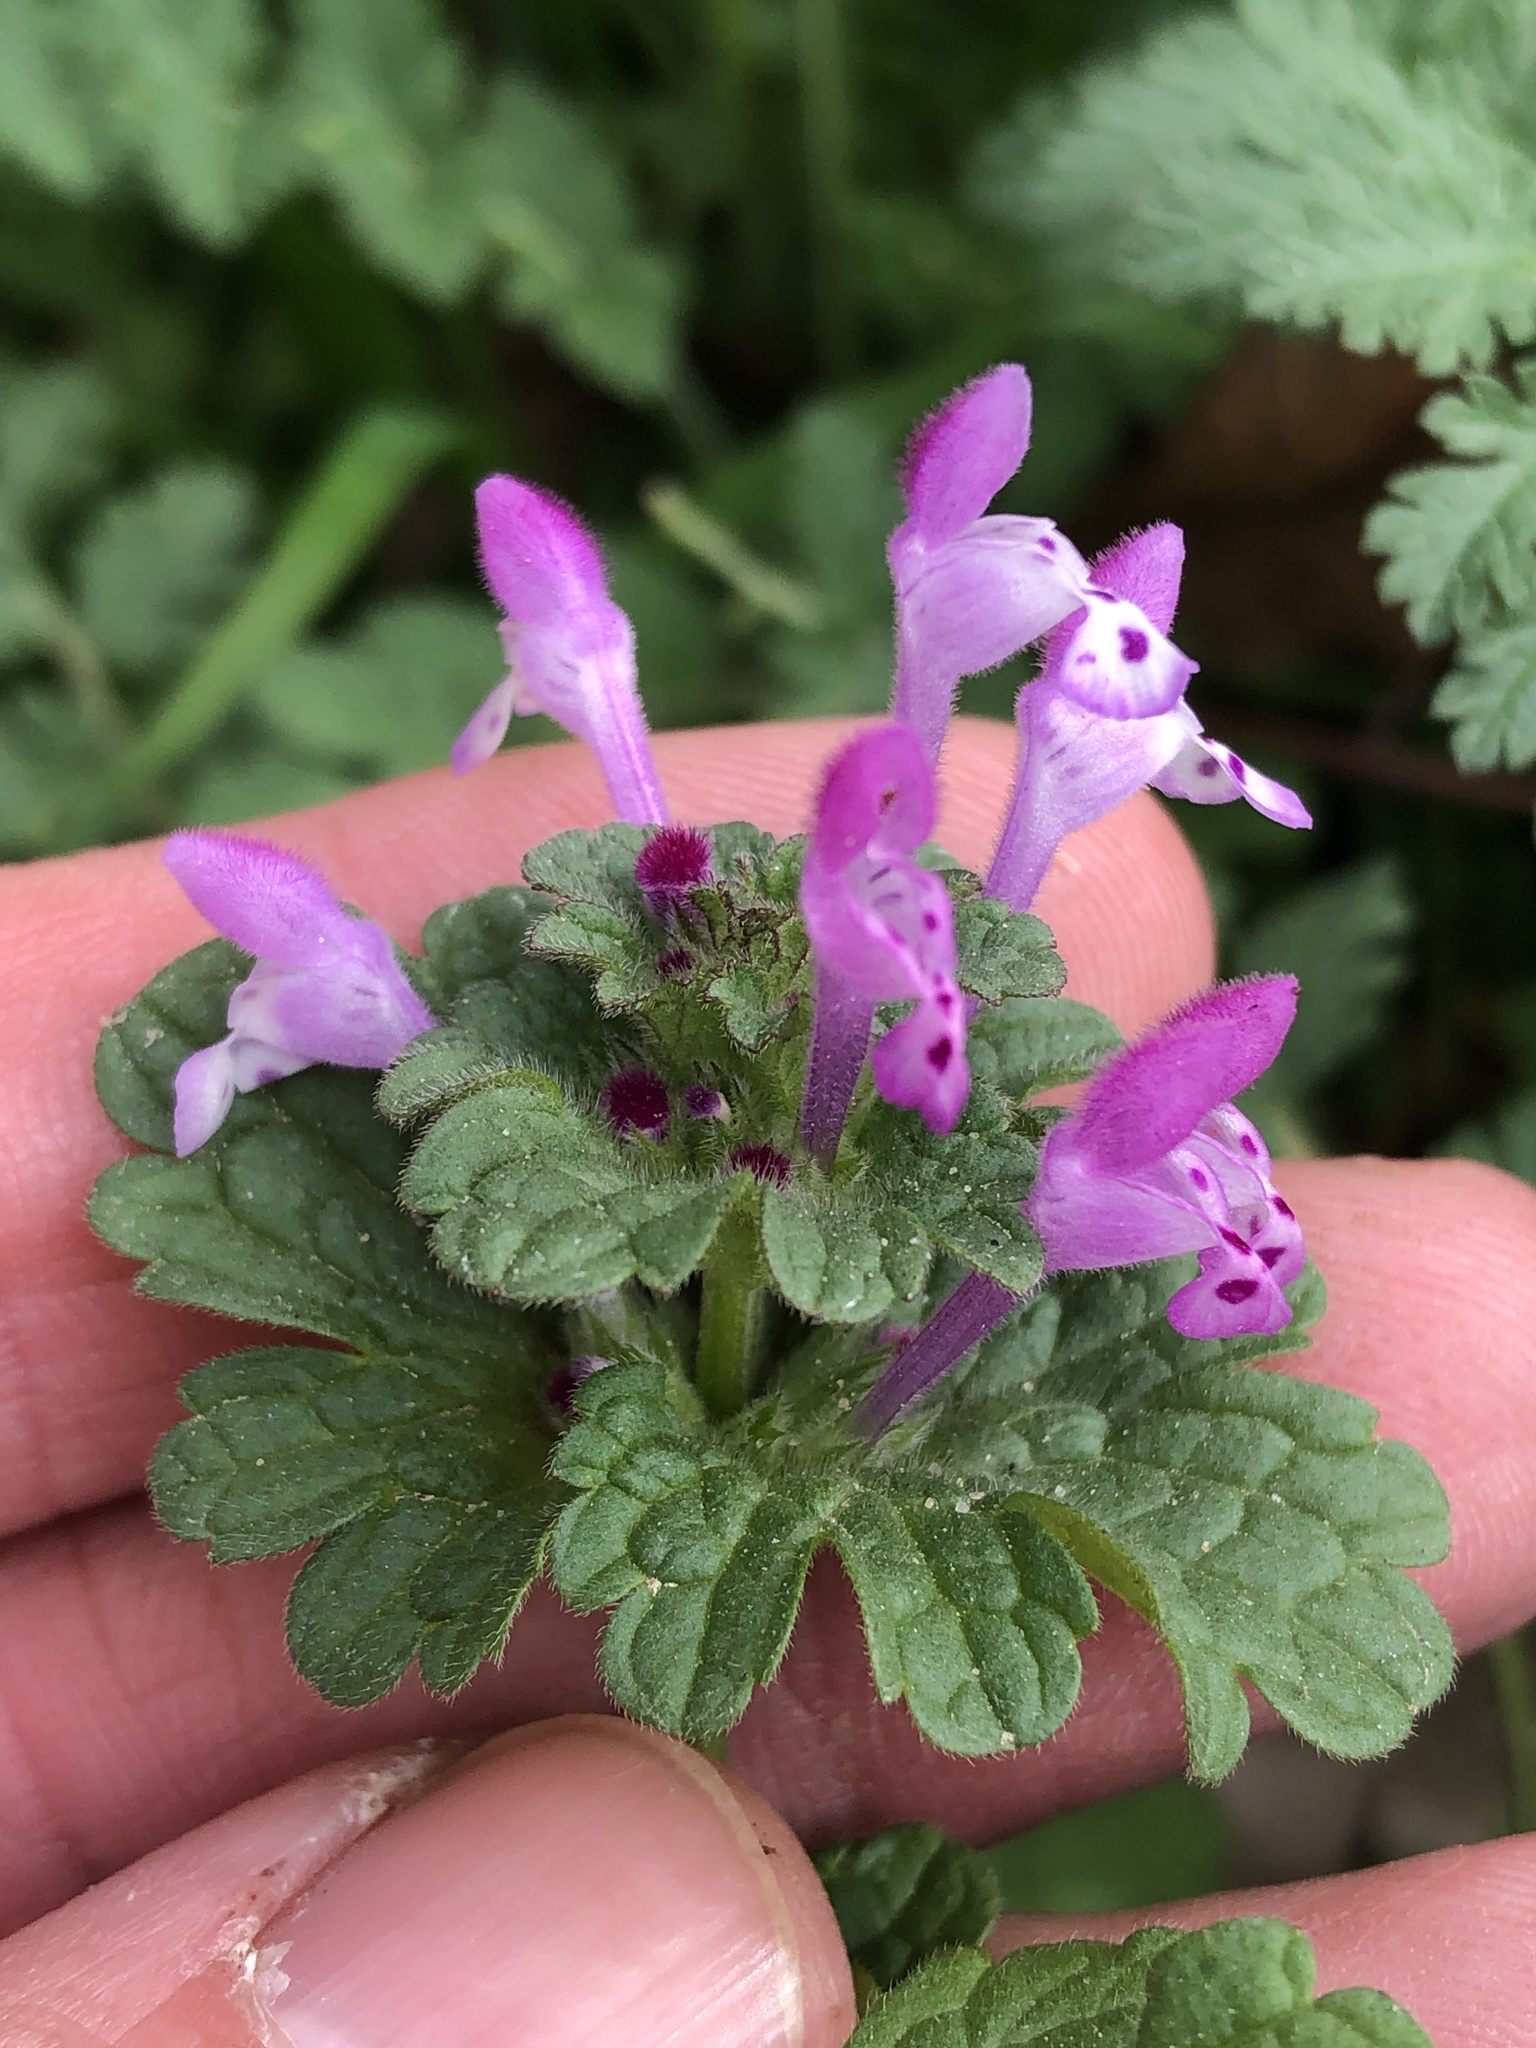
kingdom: Plantae
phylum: Tracheophyta
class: Magnoliopsida
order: Lamiales
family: Lamiaceae
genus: Lamium
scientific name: Lamium amplexicaule
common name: Henbit dead-nettle
